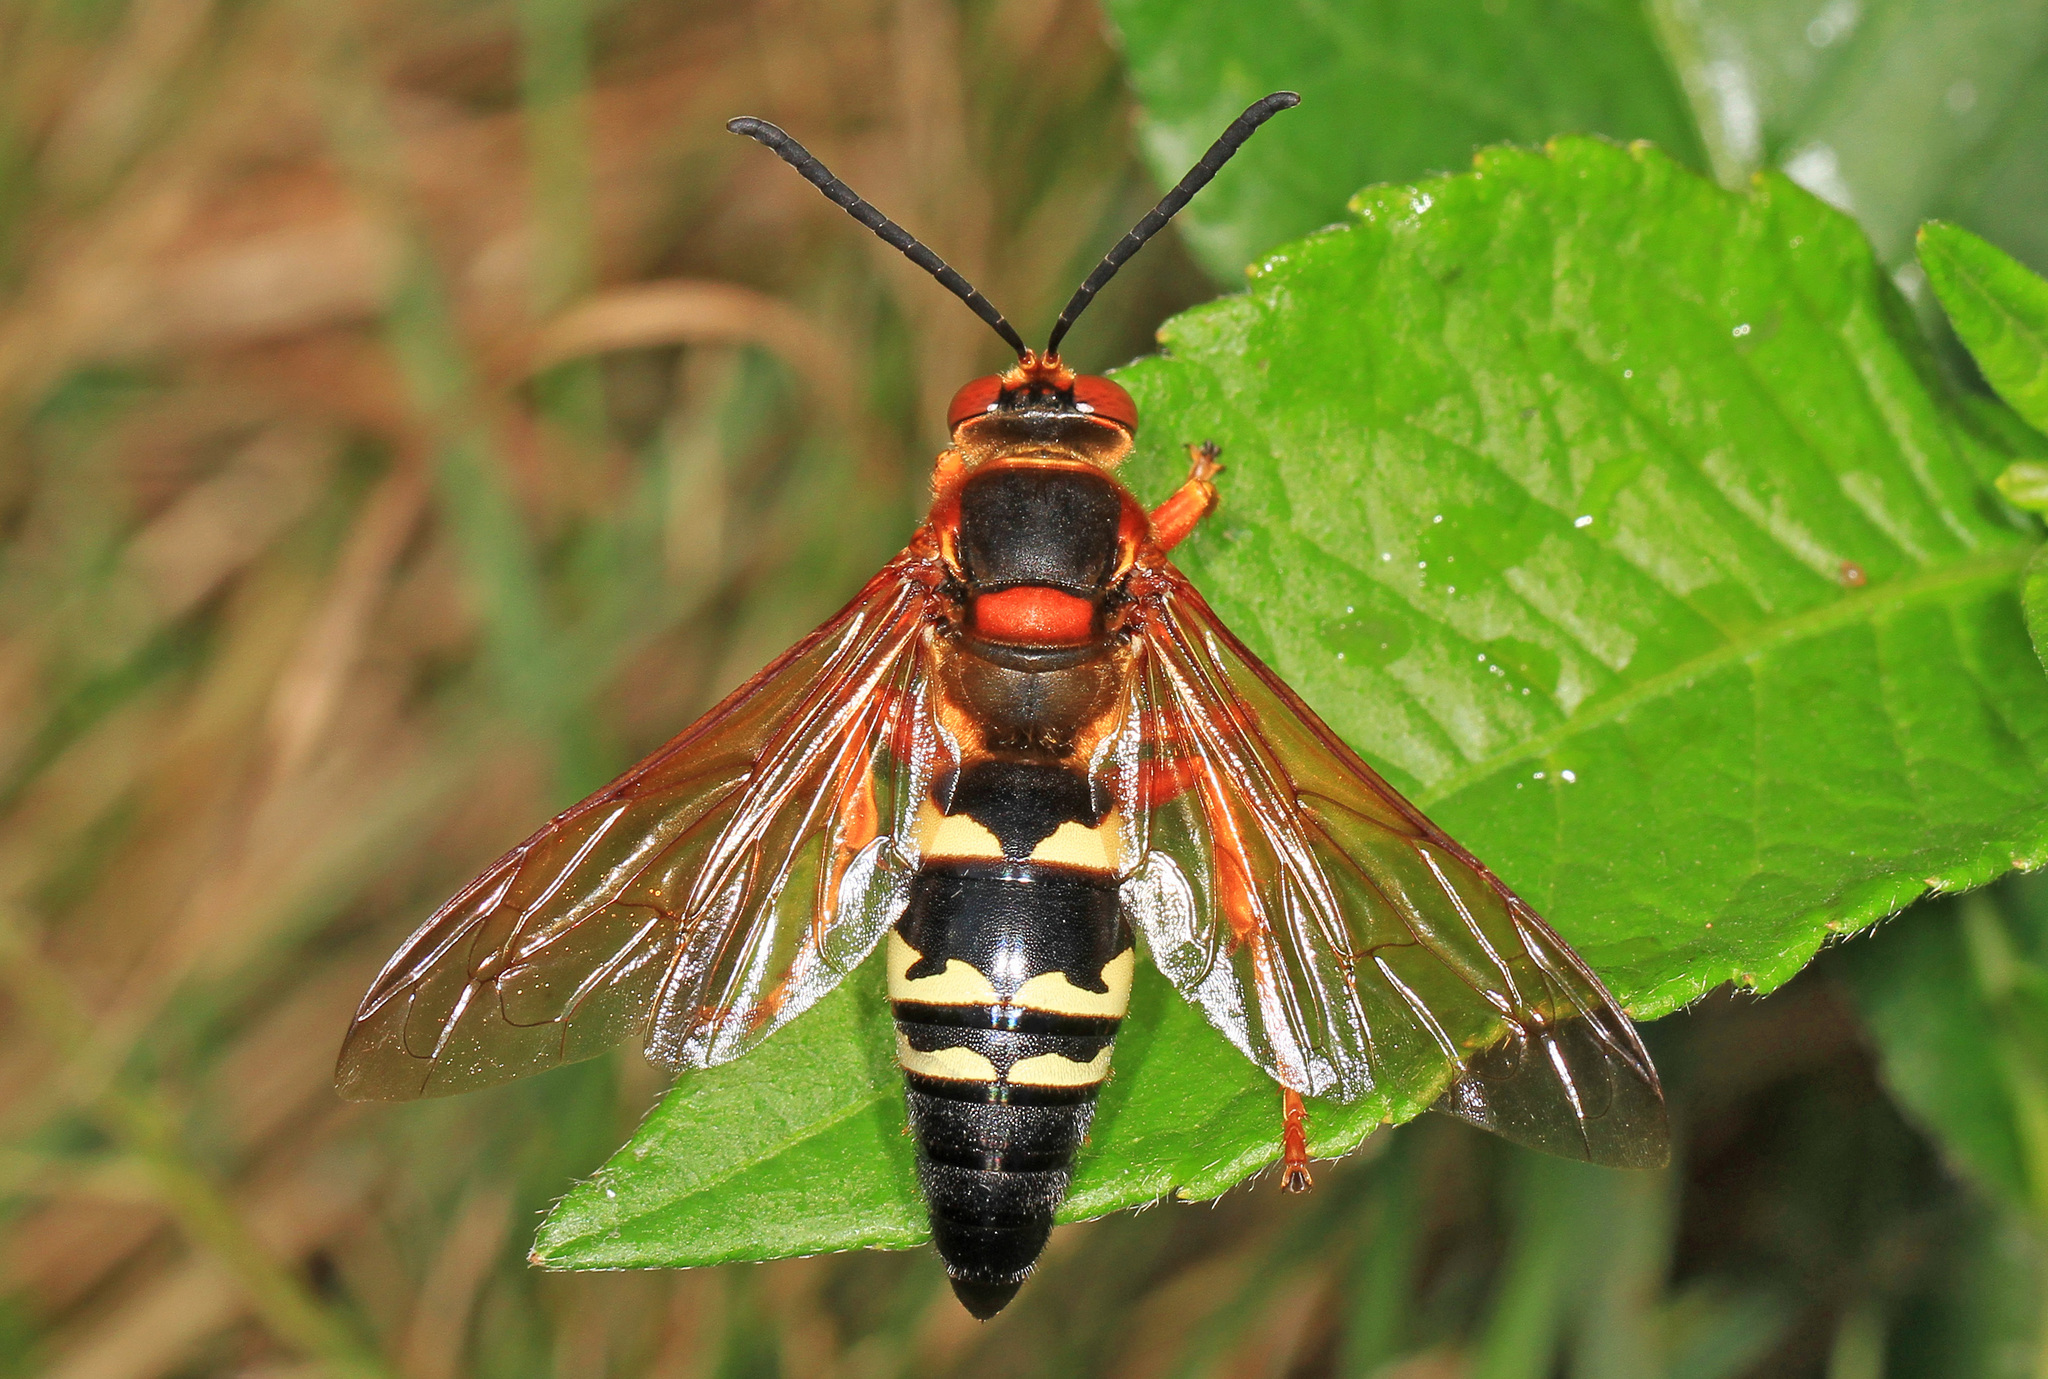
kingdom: Animalia
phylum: Arthropoda
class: Insecta
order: Hymenoptera
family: Crabronidae
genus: Sphecius
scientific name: Sphecius speciosus
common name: Cicada killer
